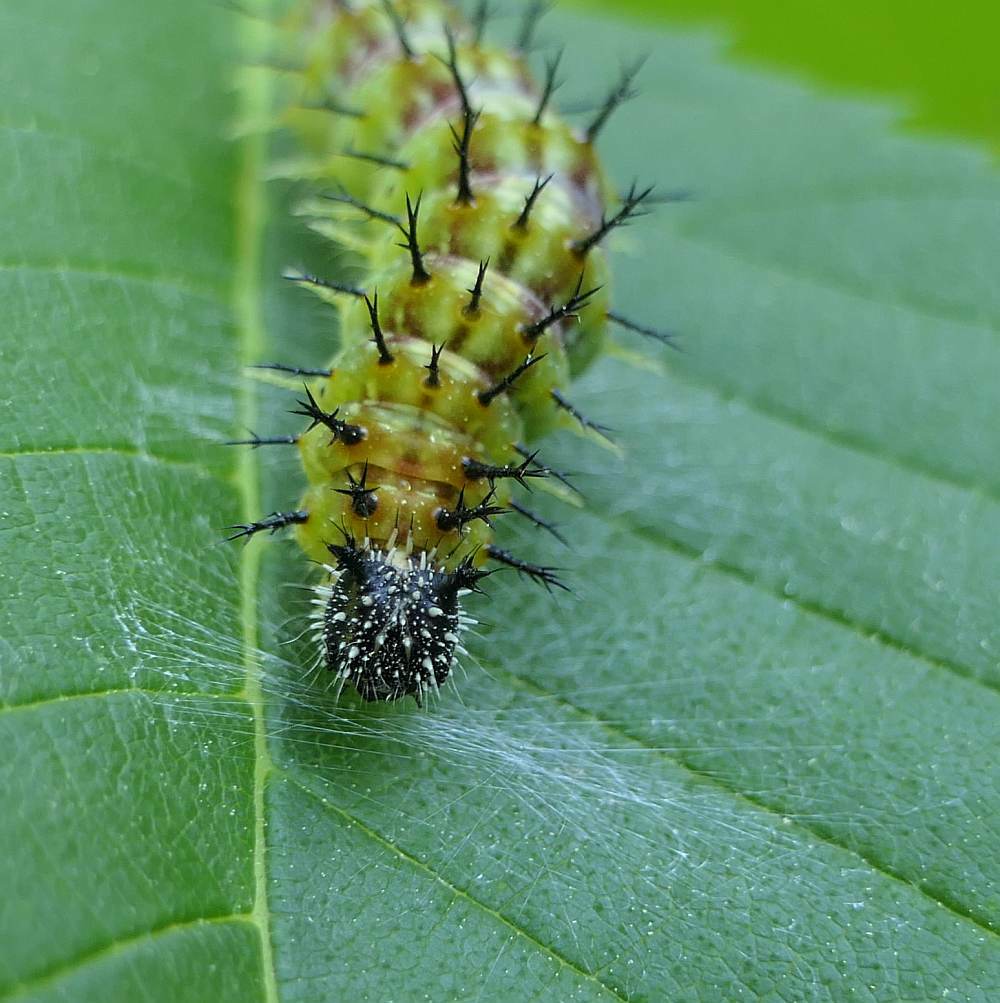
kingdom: Animalia
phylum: Arthropoda
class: Insecta
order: Lepidoptera
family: Nymphalidae
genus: Polygonia
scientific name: Polygonia vaualbum
